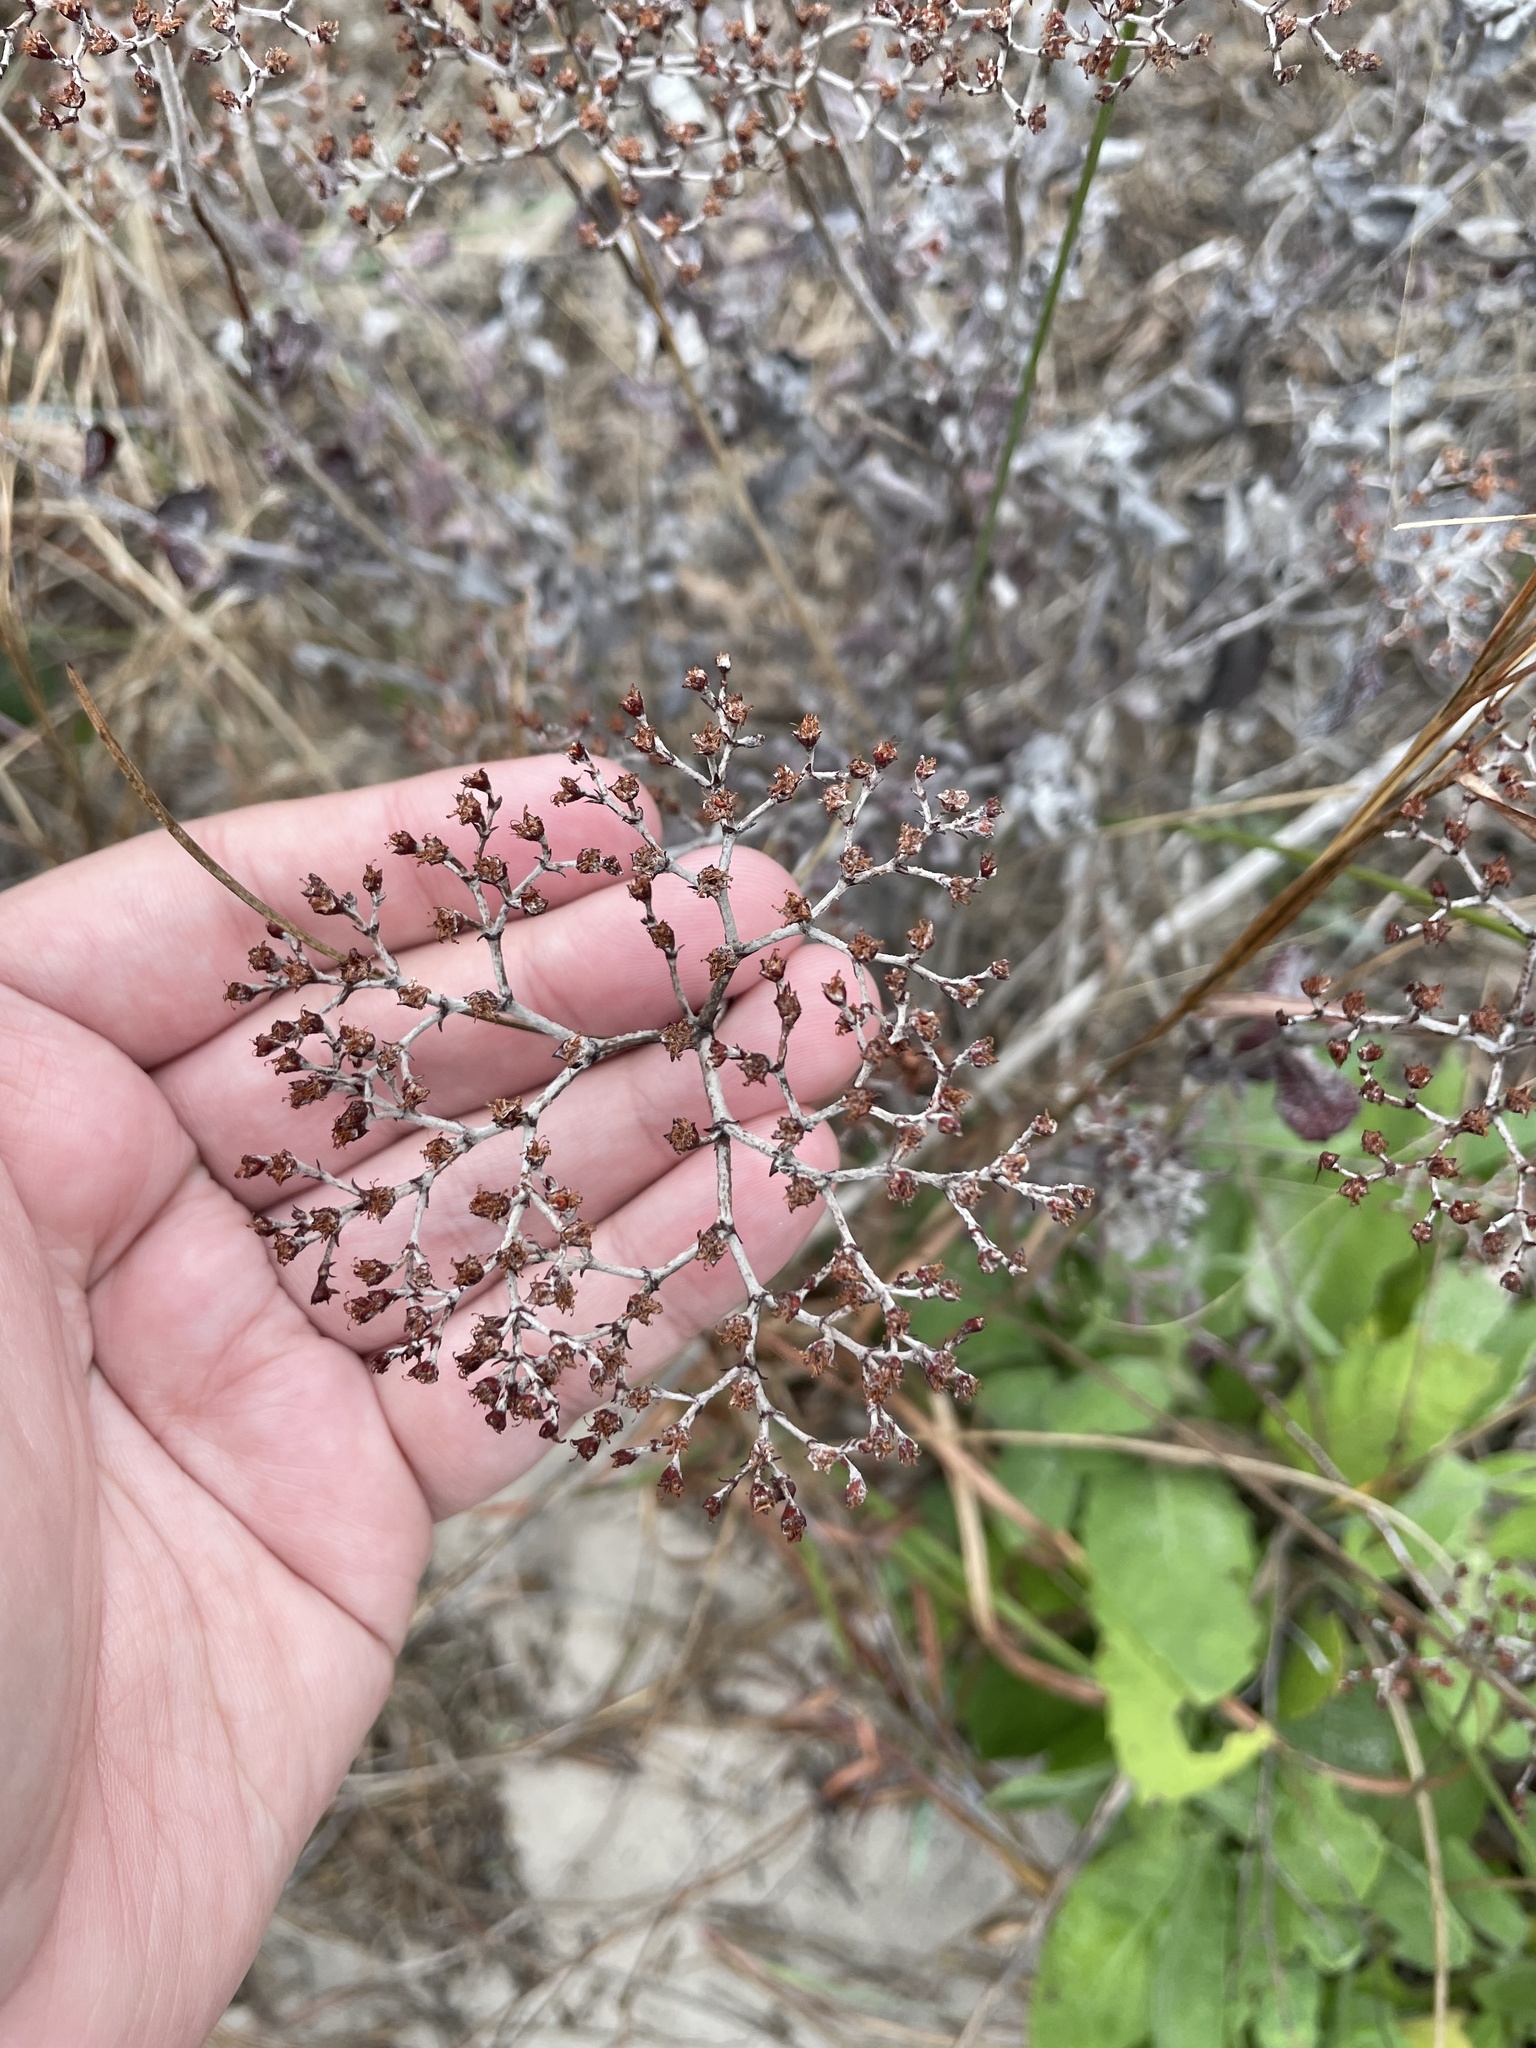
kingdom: Plantae
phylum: Tracheophyta
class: Magnoliopsida
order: Caryophyllales
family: Polygonaceae
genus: Eriogonum
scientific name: Eriogonum multiflorum
